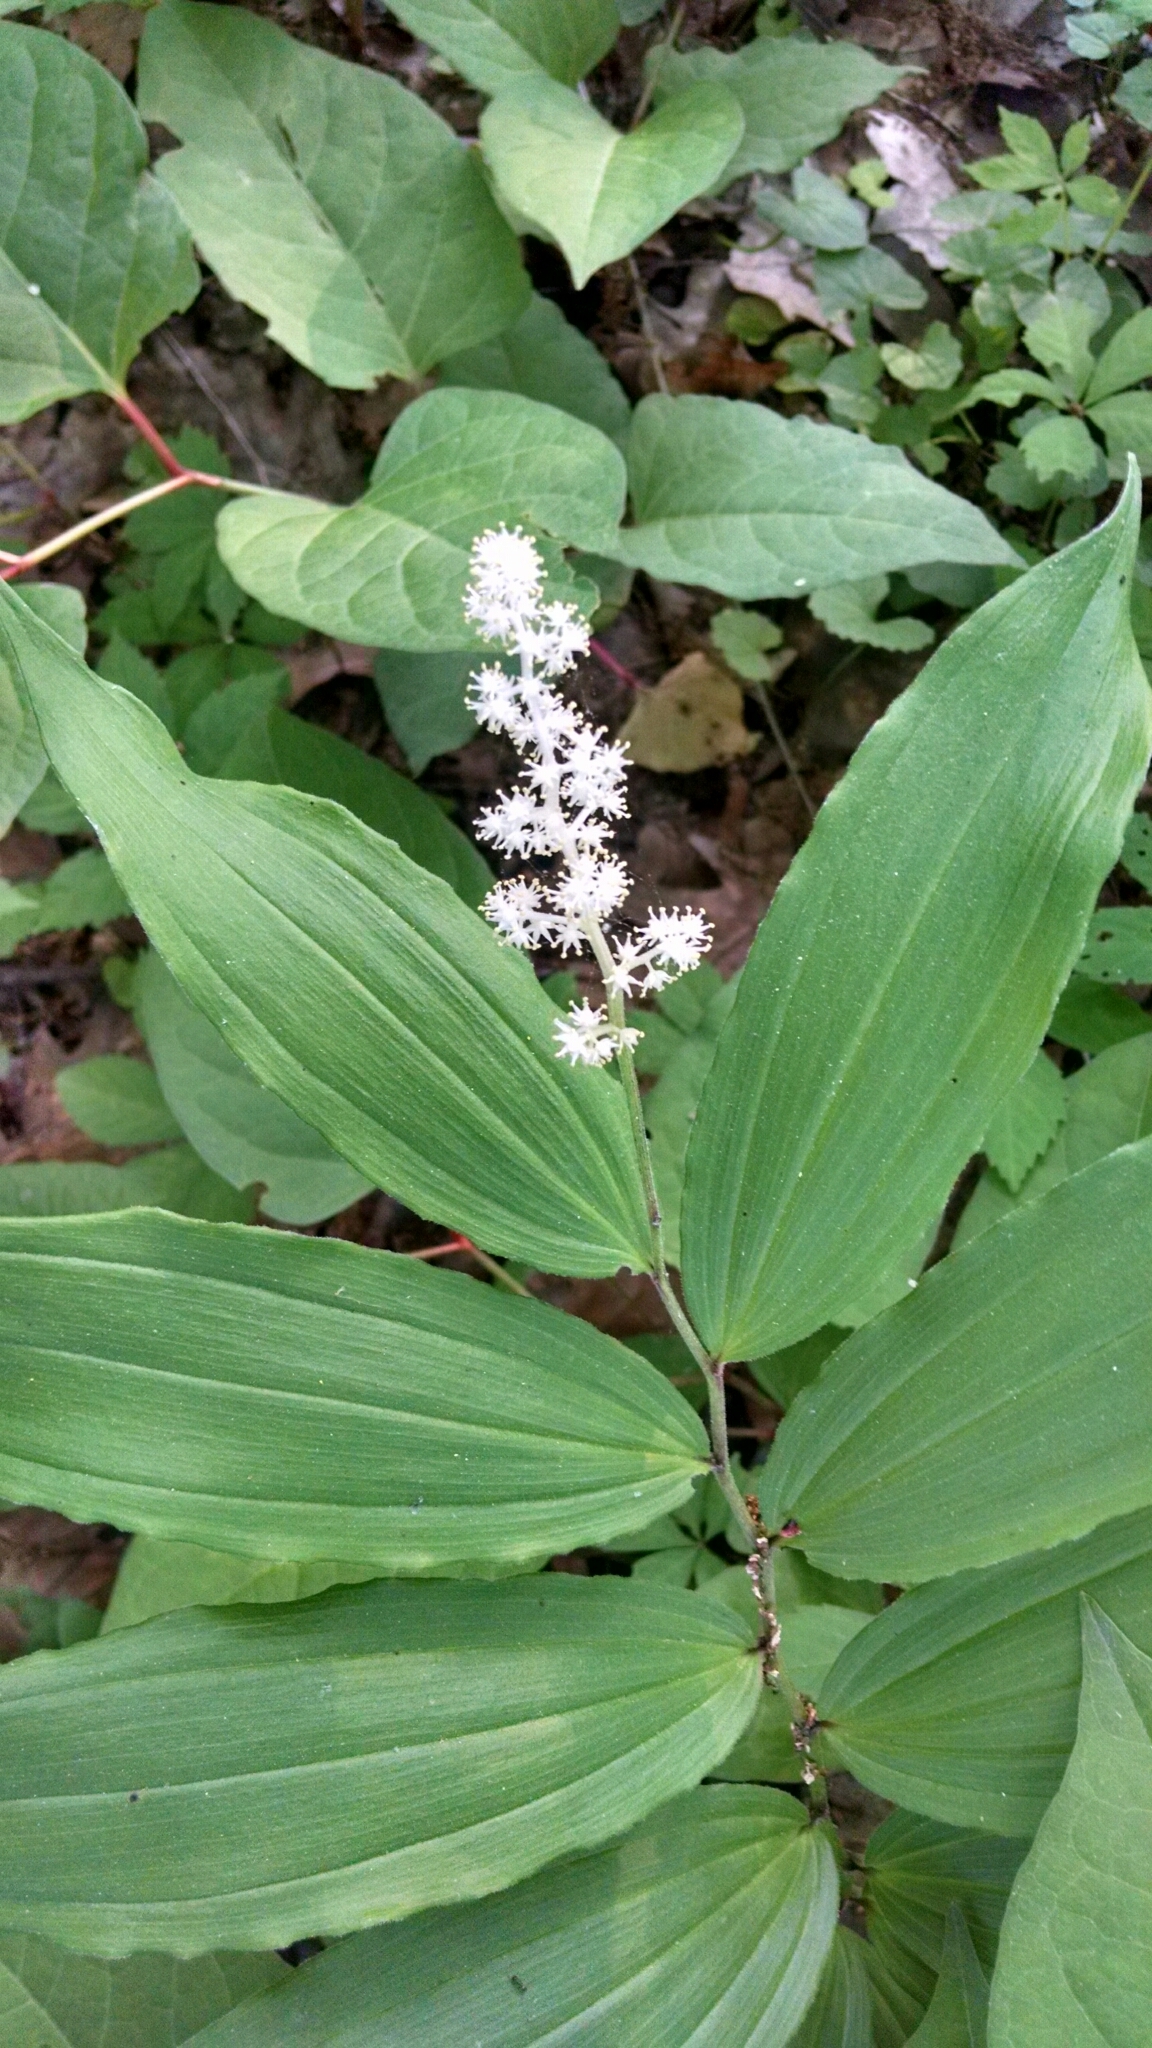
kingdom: Plantae
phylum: Tracheophyta
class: Liliopsida
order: Asparagales
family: Asparagaceae
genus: Maianthemum
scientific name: Maianthemum racemosum
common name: False spikenard
